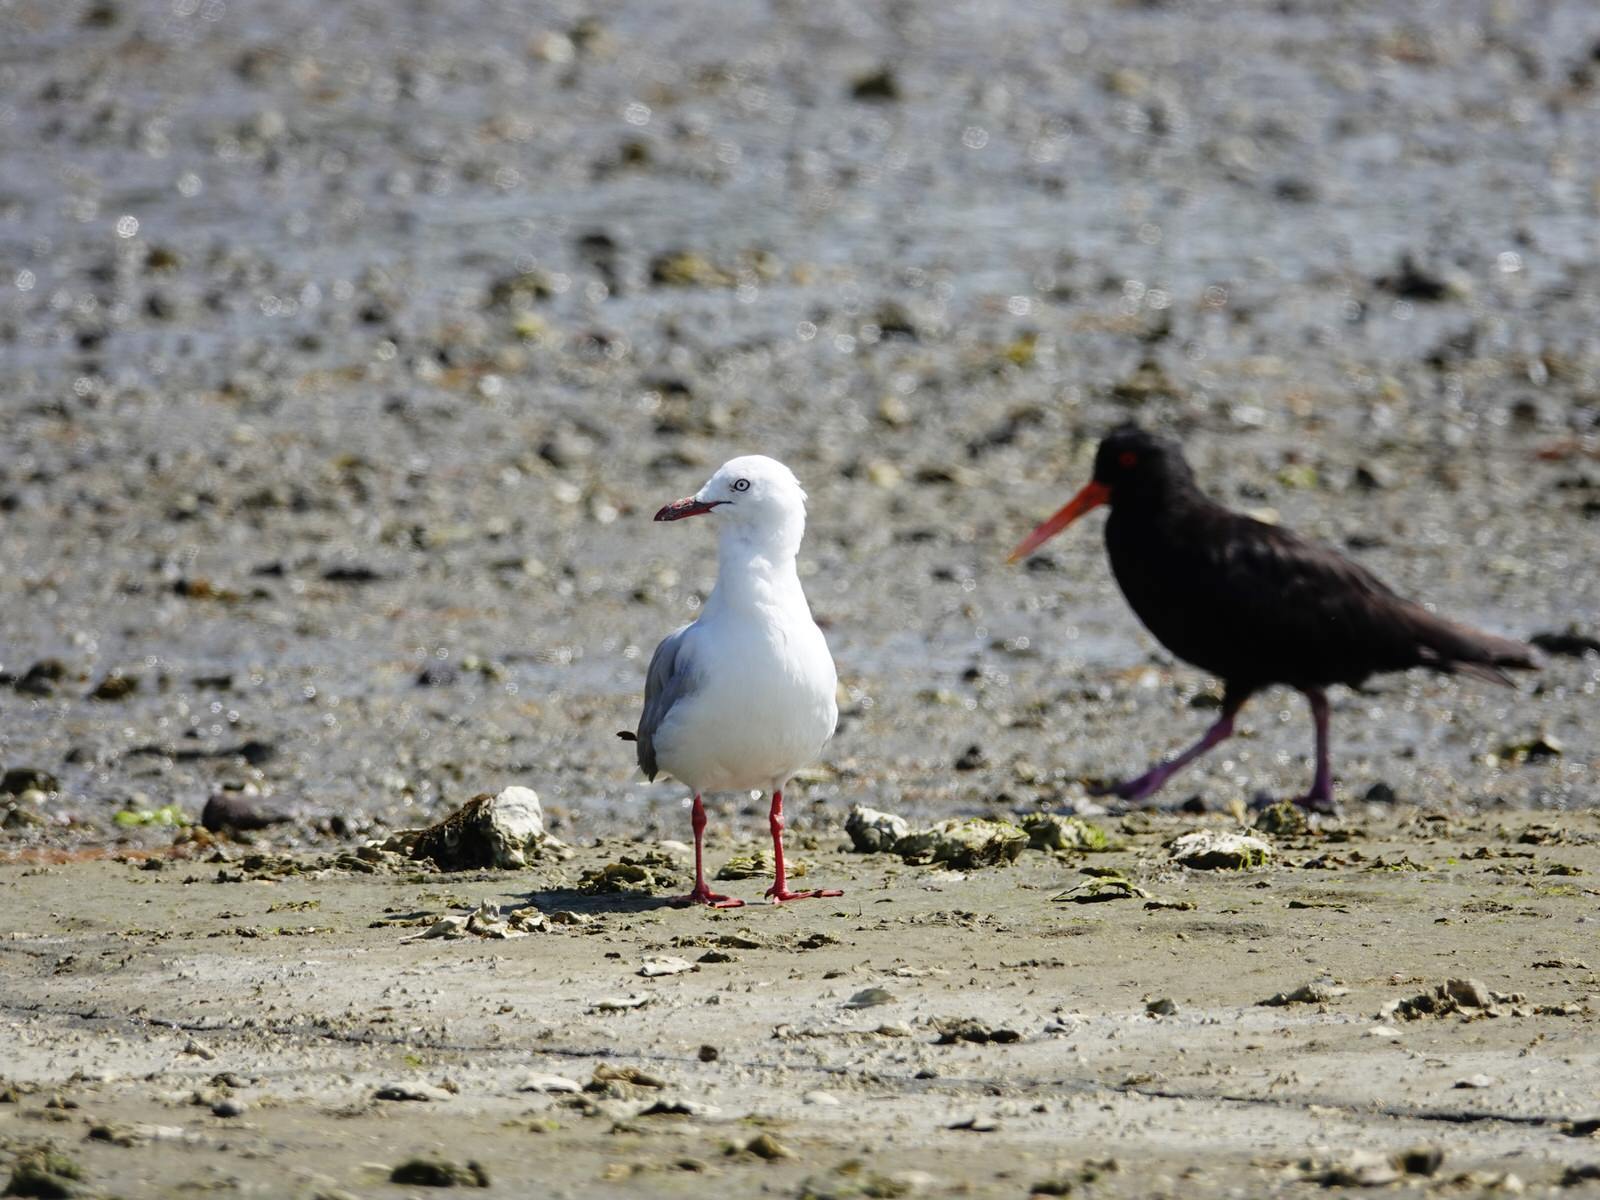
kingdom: Animalia
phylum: Chordata
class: Aves
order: Charadriiformes
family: Laridae
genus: Chroicocephalus
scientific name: Chroicocephalus novaehollandiae
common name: Silver gull
